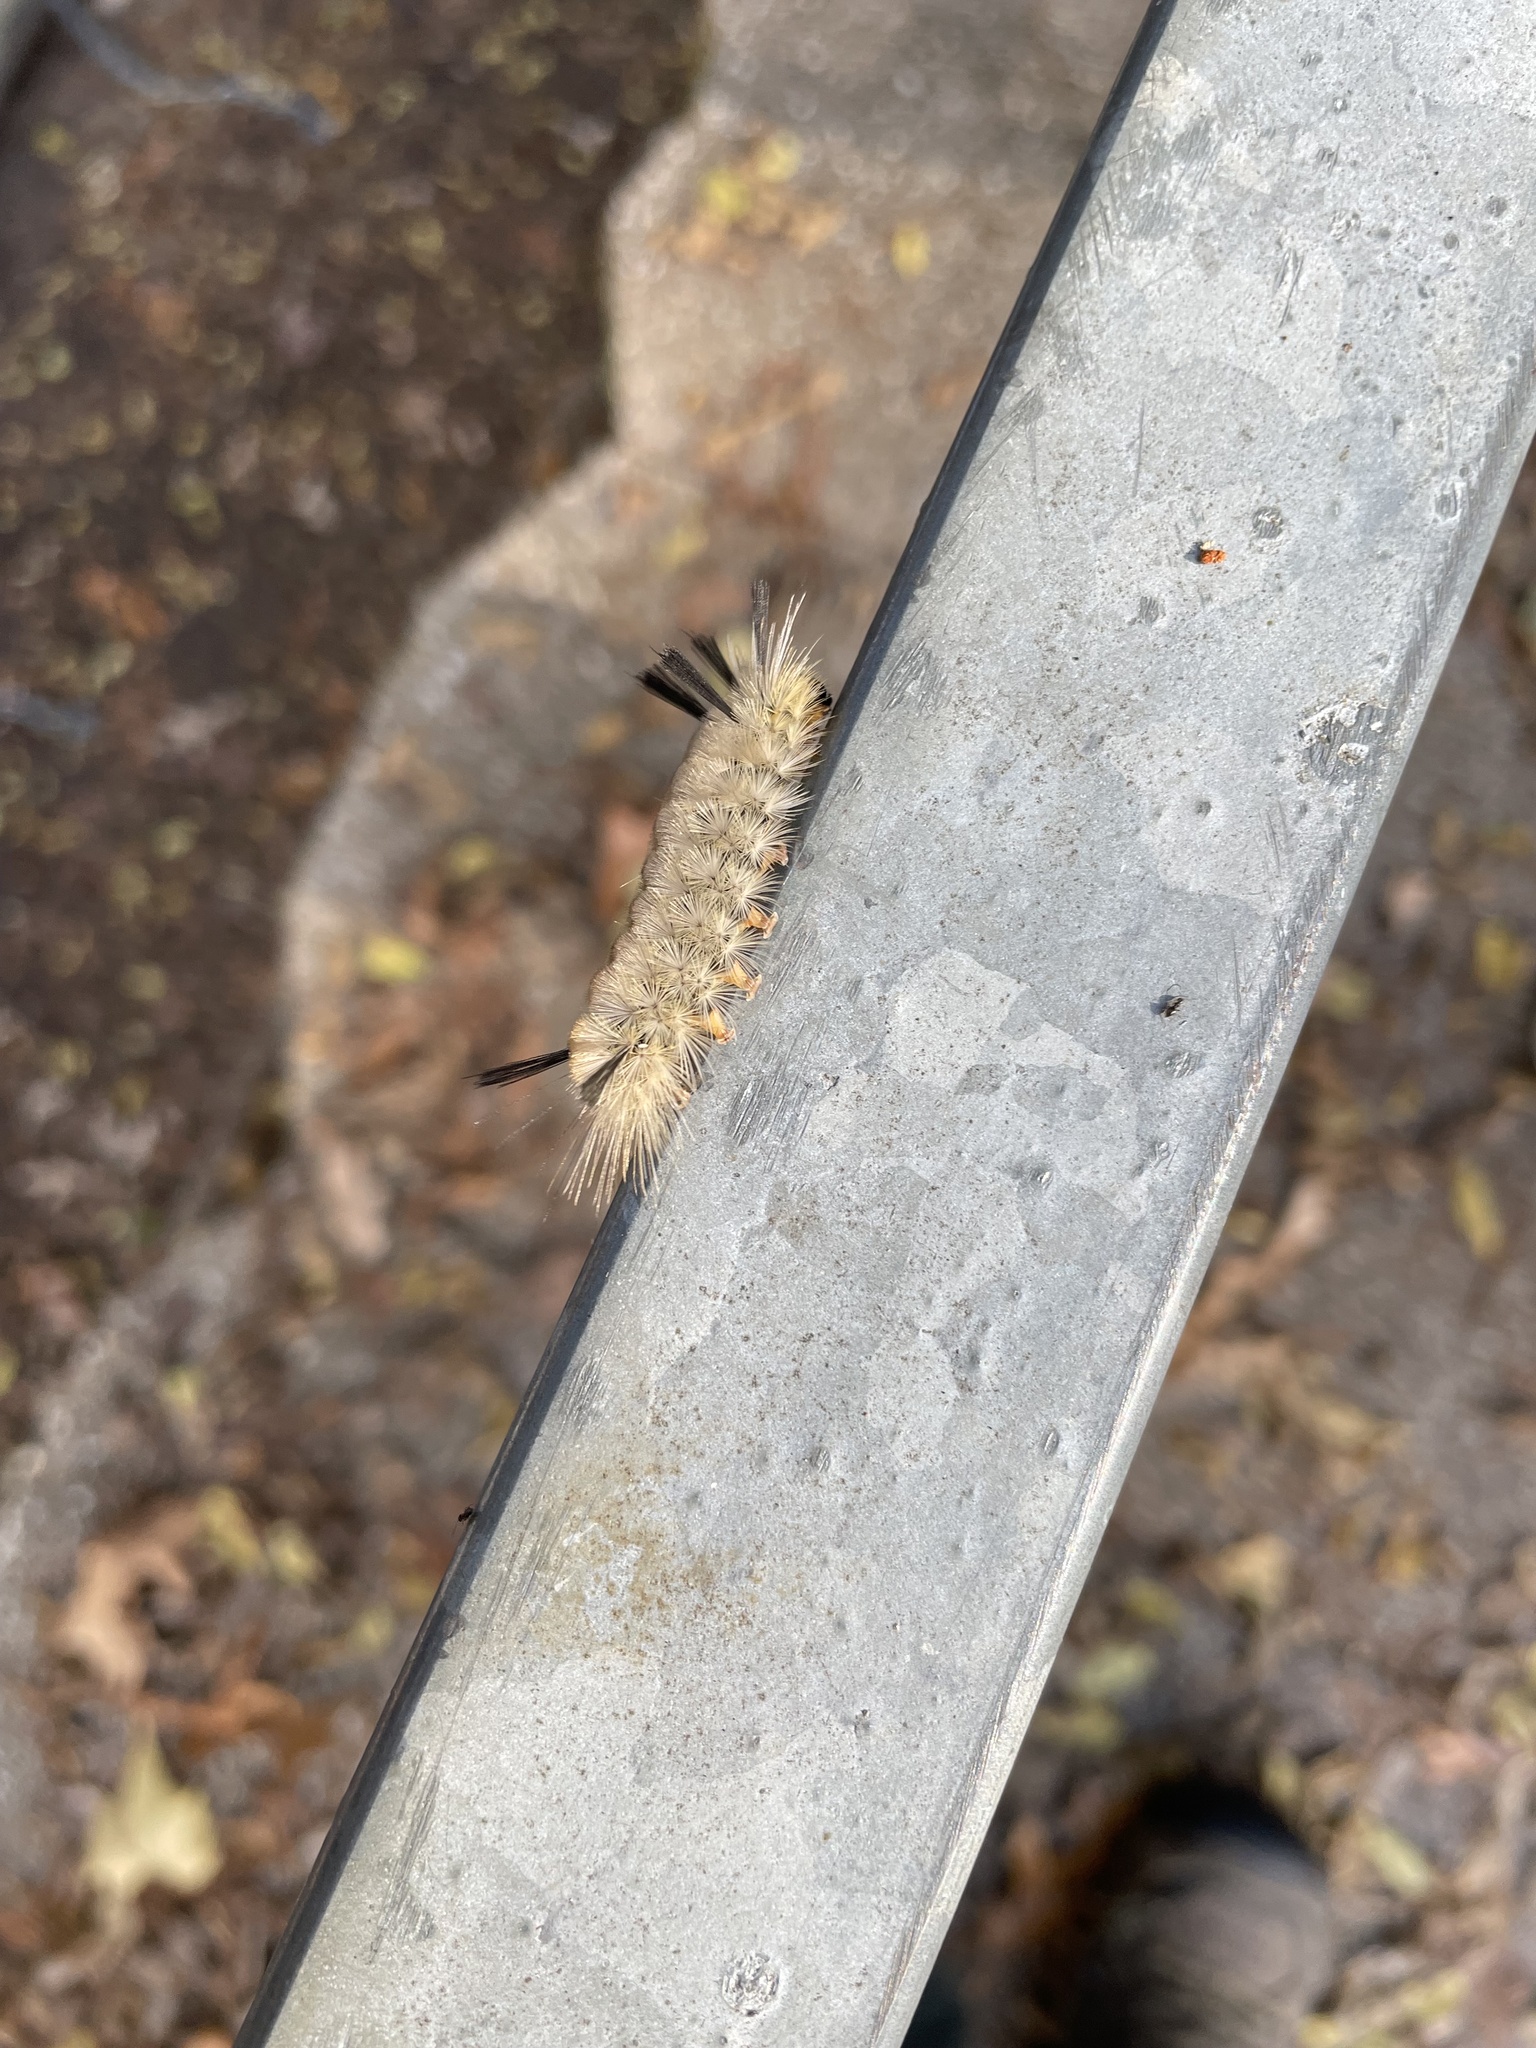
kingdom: Animalia
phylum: Arthropoda
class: Insecta
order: Lepidoptera
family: Erebidae
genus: Halysidota
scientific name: Halysidota tessellaris
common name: Banded tussock moth
